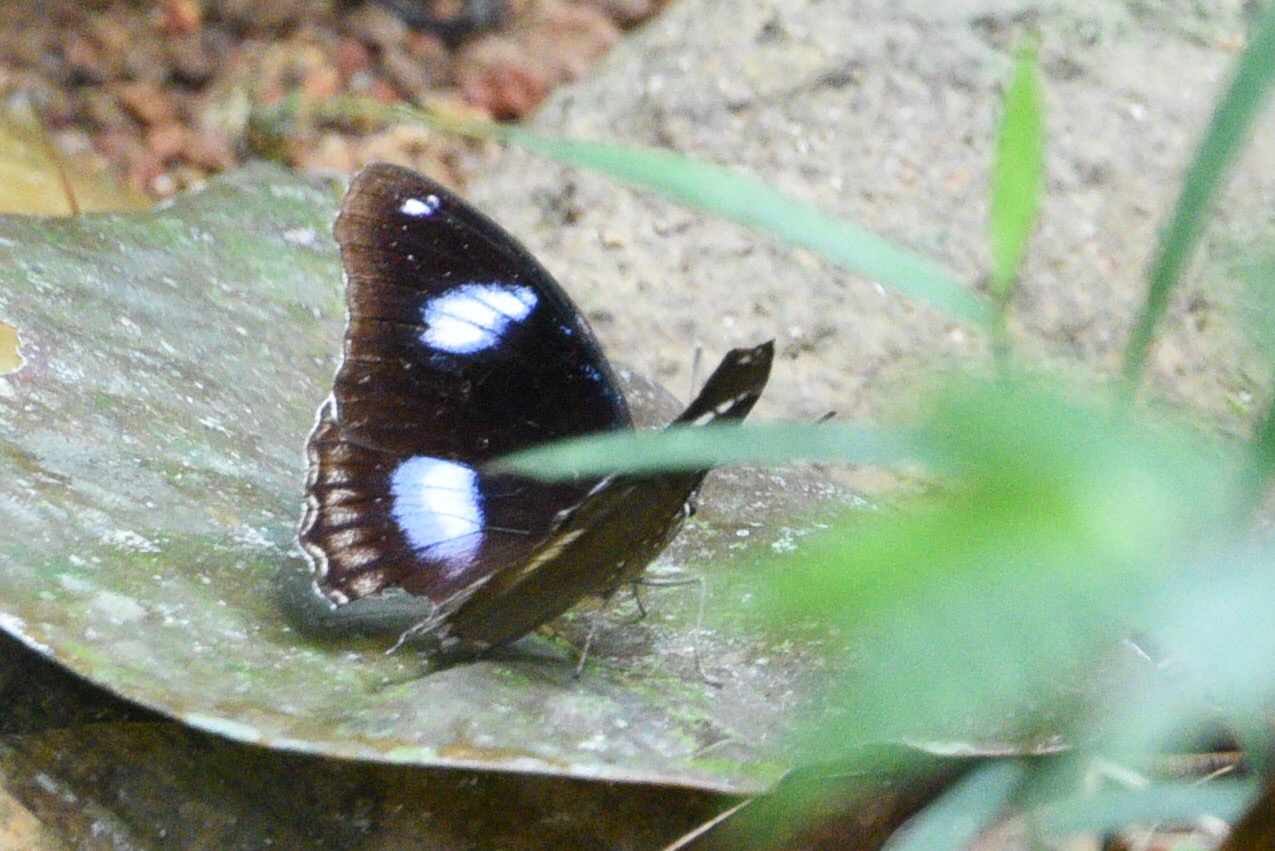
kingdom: Animalia
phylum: Arthropoda
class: Insecta
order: Lepidoptera
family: Nymphalidae
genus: Hypolimnas
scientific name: Hypolimnas bolina
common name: Great eggfly
